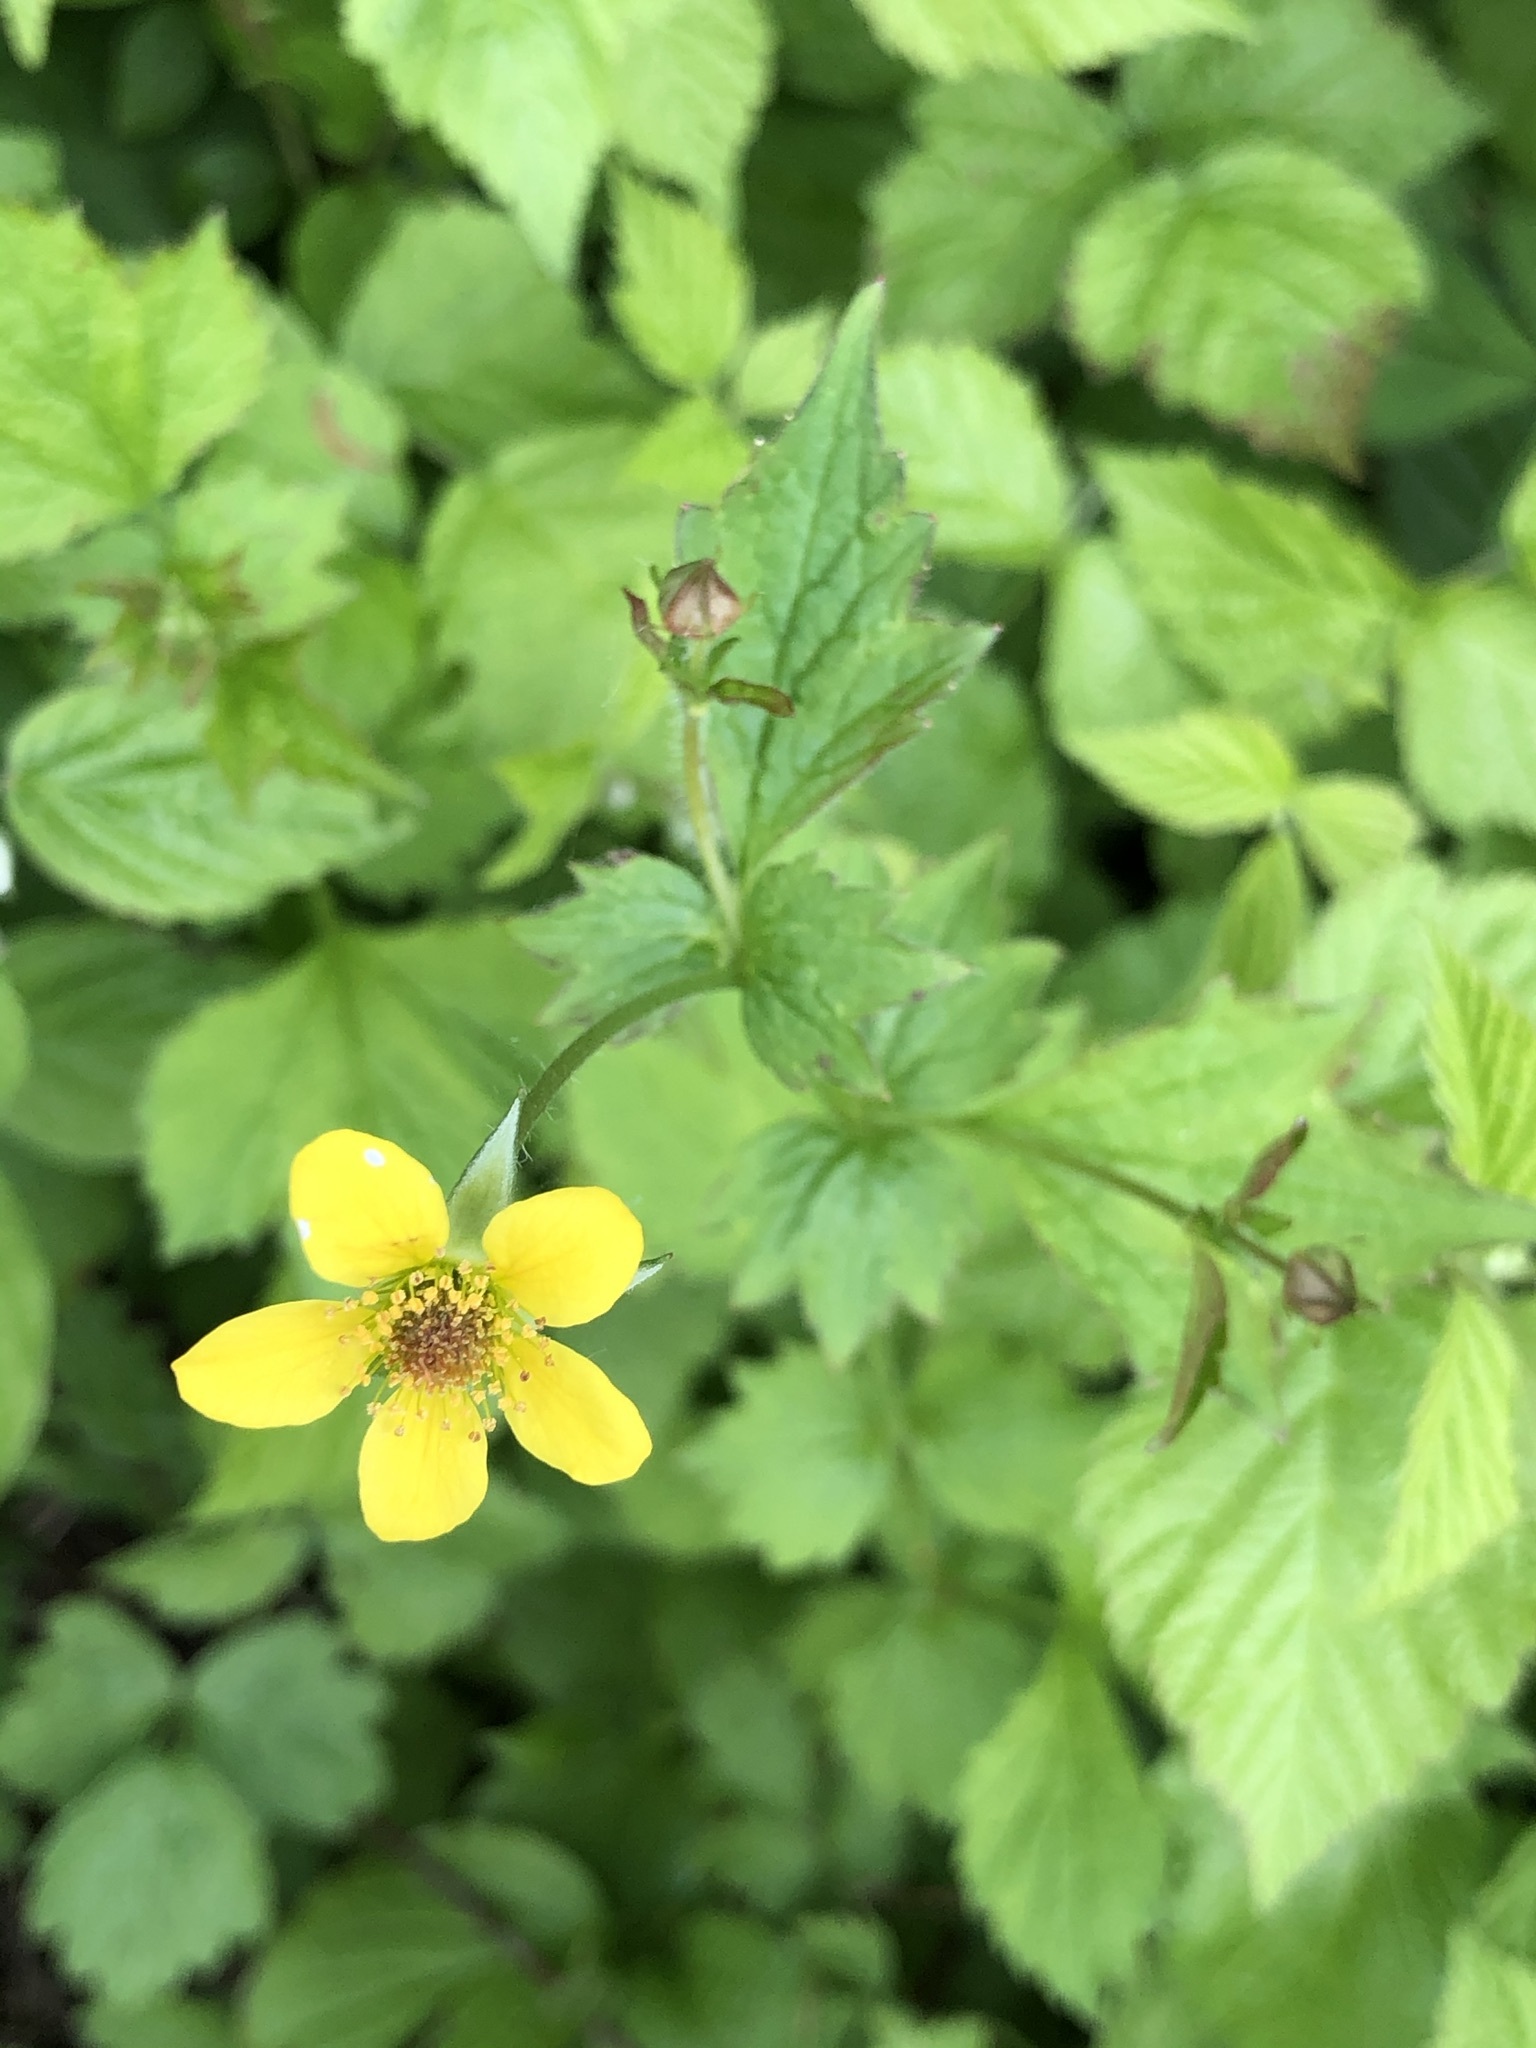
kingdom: Plantae
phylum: Tracheophyta
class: Magnoliopsida
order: Rosales
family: Rosaceae
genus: Geum
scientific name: Geum urbanum
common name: Wood avens
